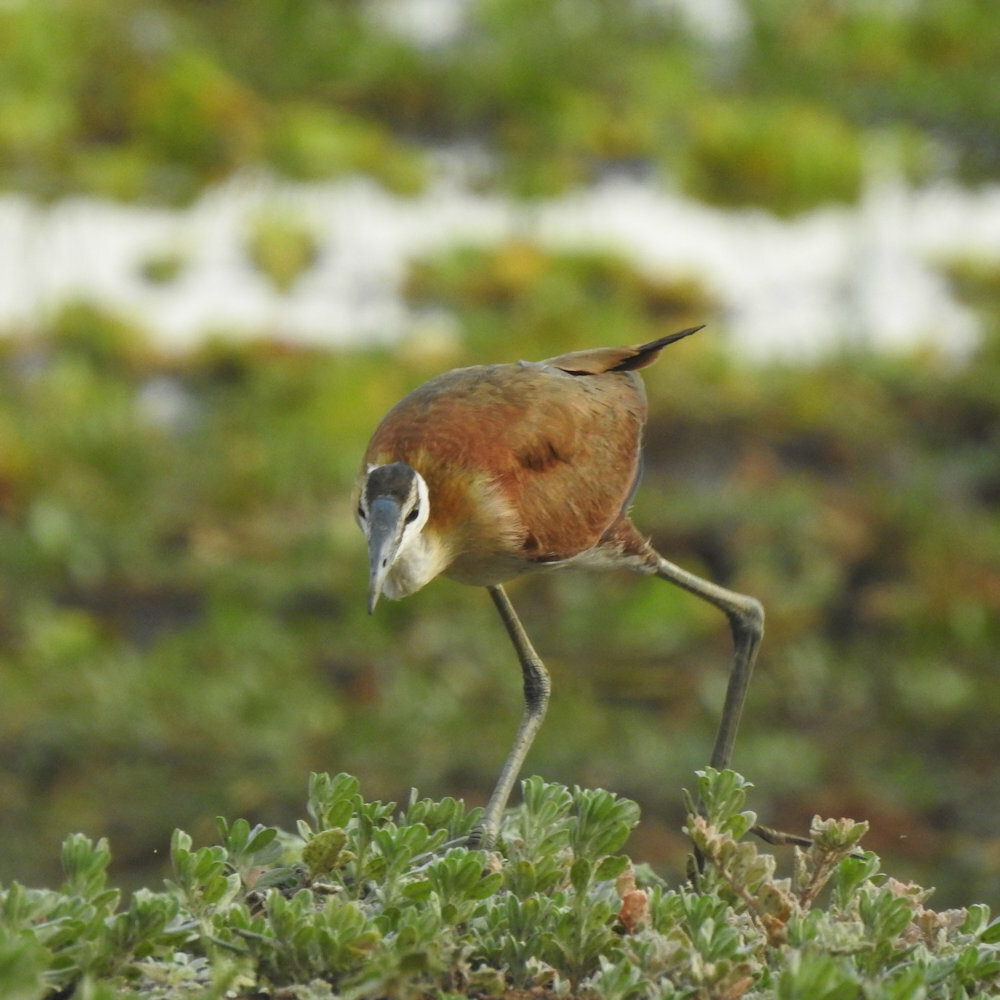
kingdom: Animalia
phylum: Chordata
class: Aves
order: Charadriiformes
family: Jacanidae
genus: Actophilornis
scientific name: Actophilornis africanus
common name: African jacana
